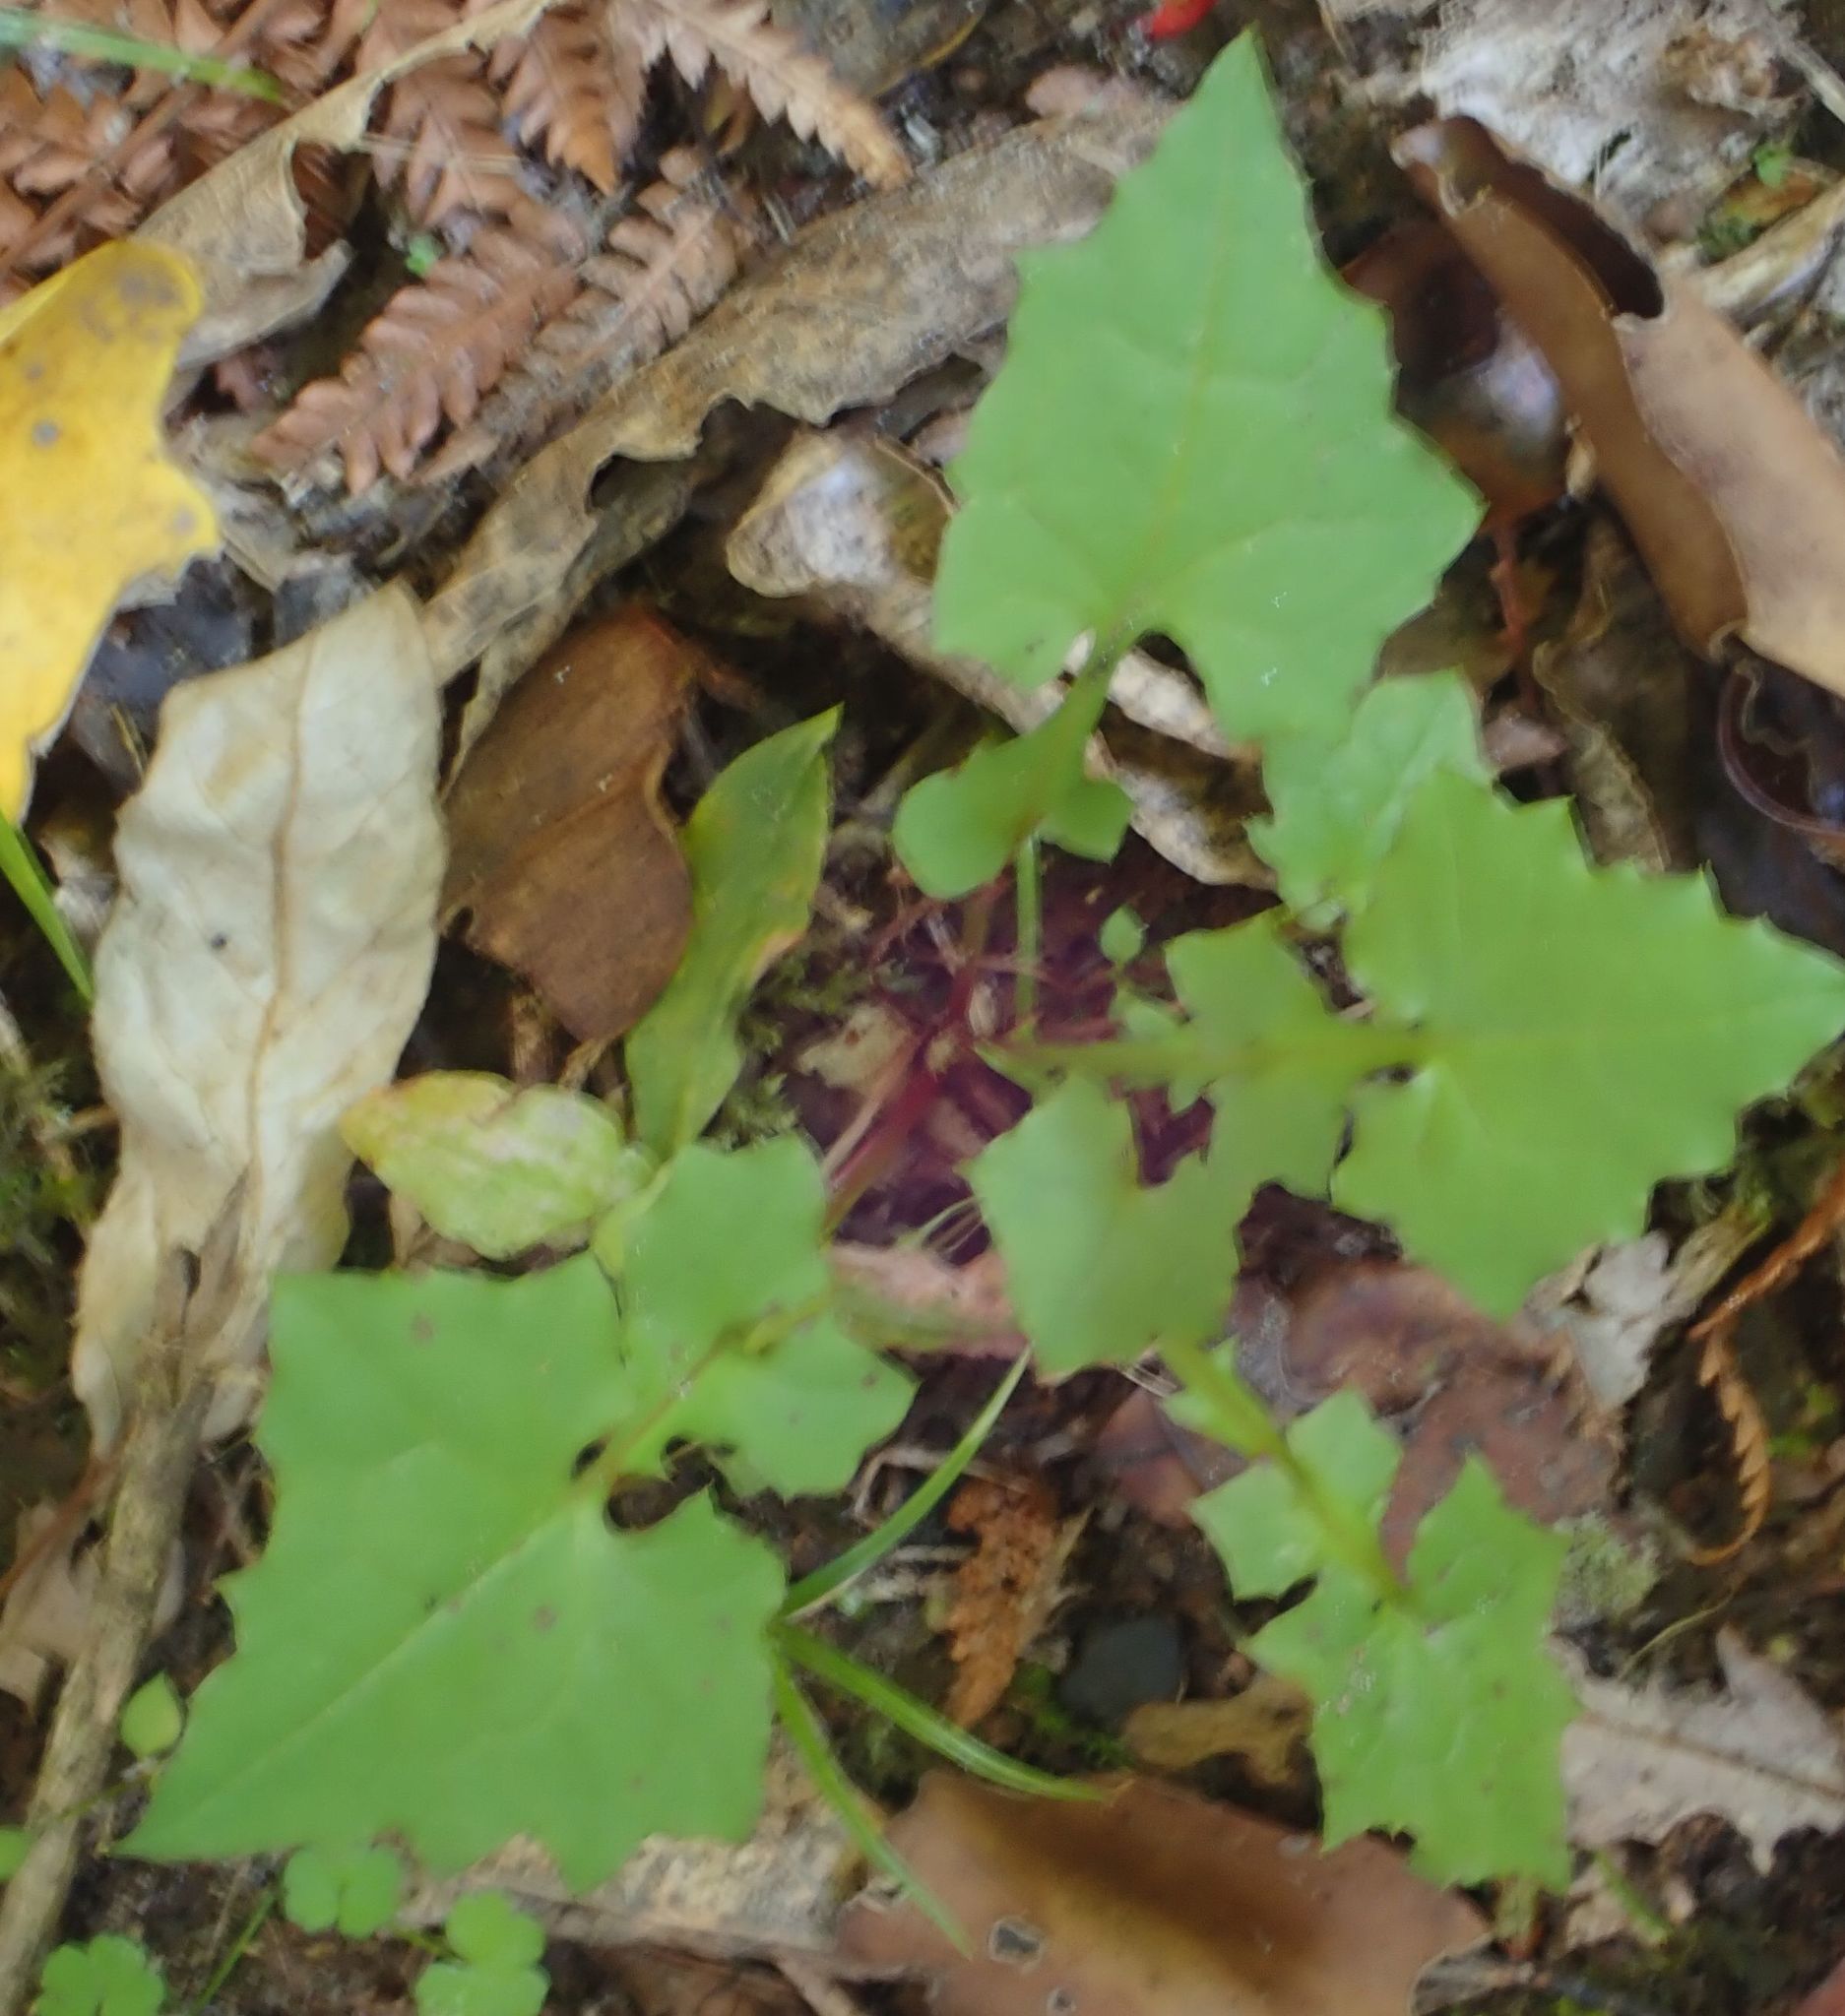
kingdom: Plantae
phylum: Tracheophyta
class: Magnoliopsida
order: Asterales
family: Asteraceae
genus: Mycelis
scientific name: Mycelis muralis
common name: Wall lettuce
